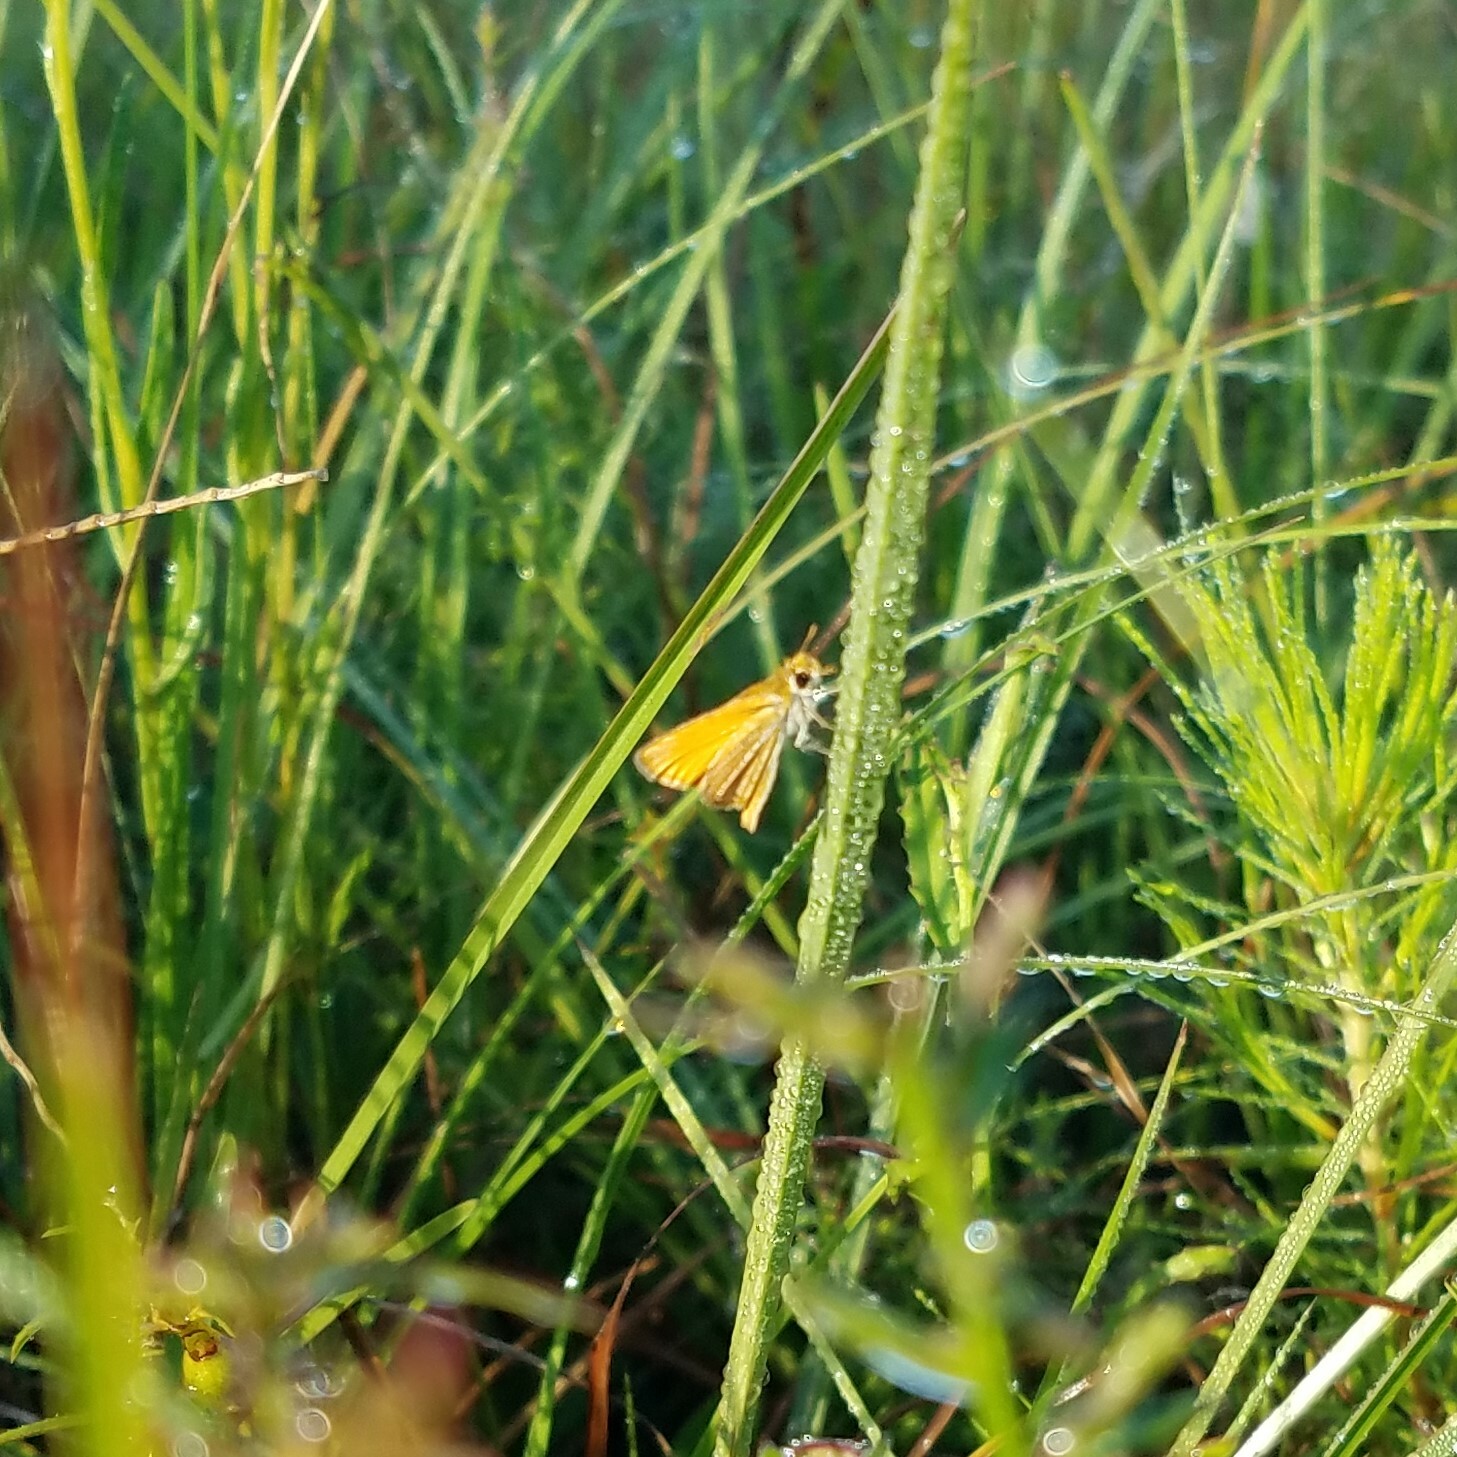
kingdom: Animalia
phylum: Arthropoda
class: Insecta
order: Lepidoptera
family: Hesperiidae
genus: Copaeodes
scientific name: Copaeodes minima
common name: Southern skipperling
